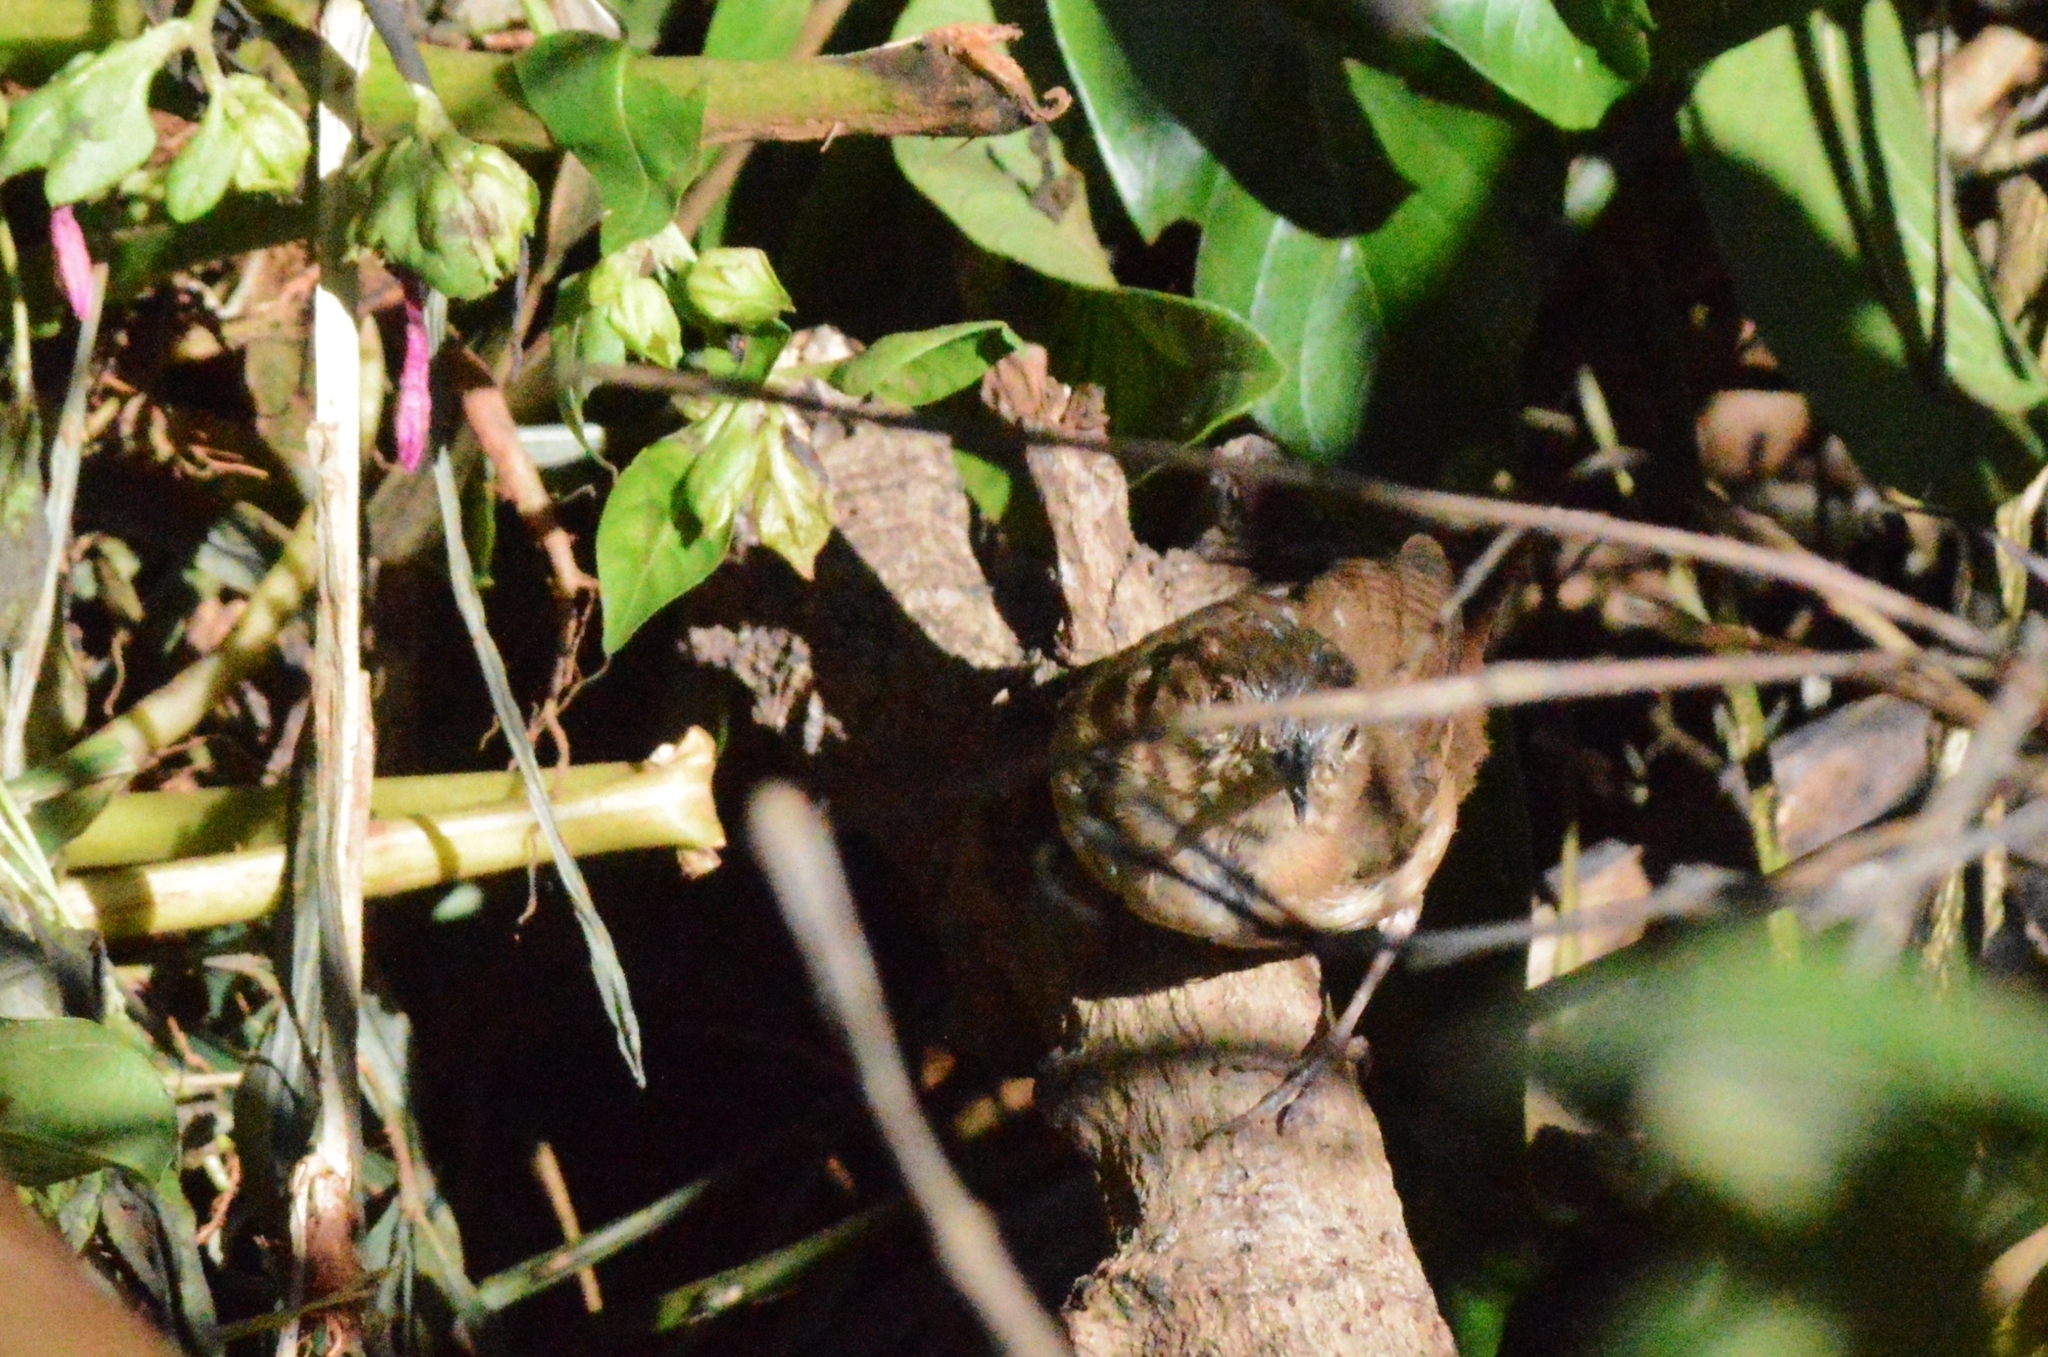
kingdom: Animalia
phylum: Chordata
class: Aves
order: Passeriformes
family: Troglodytidae
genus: Troglodytes
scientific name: Troglodytes aedon
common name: House wren
